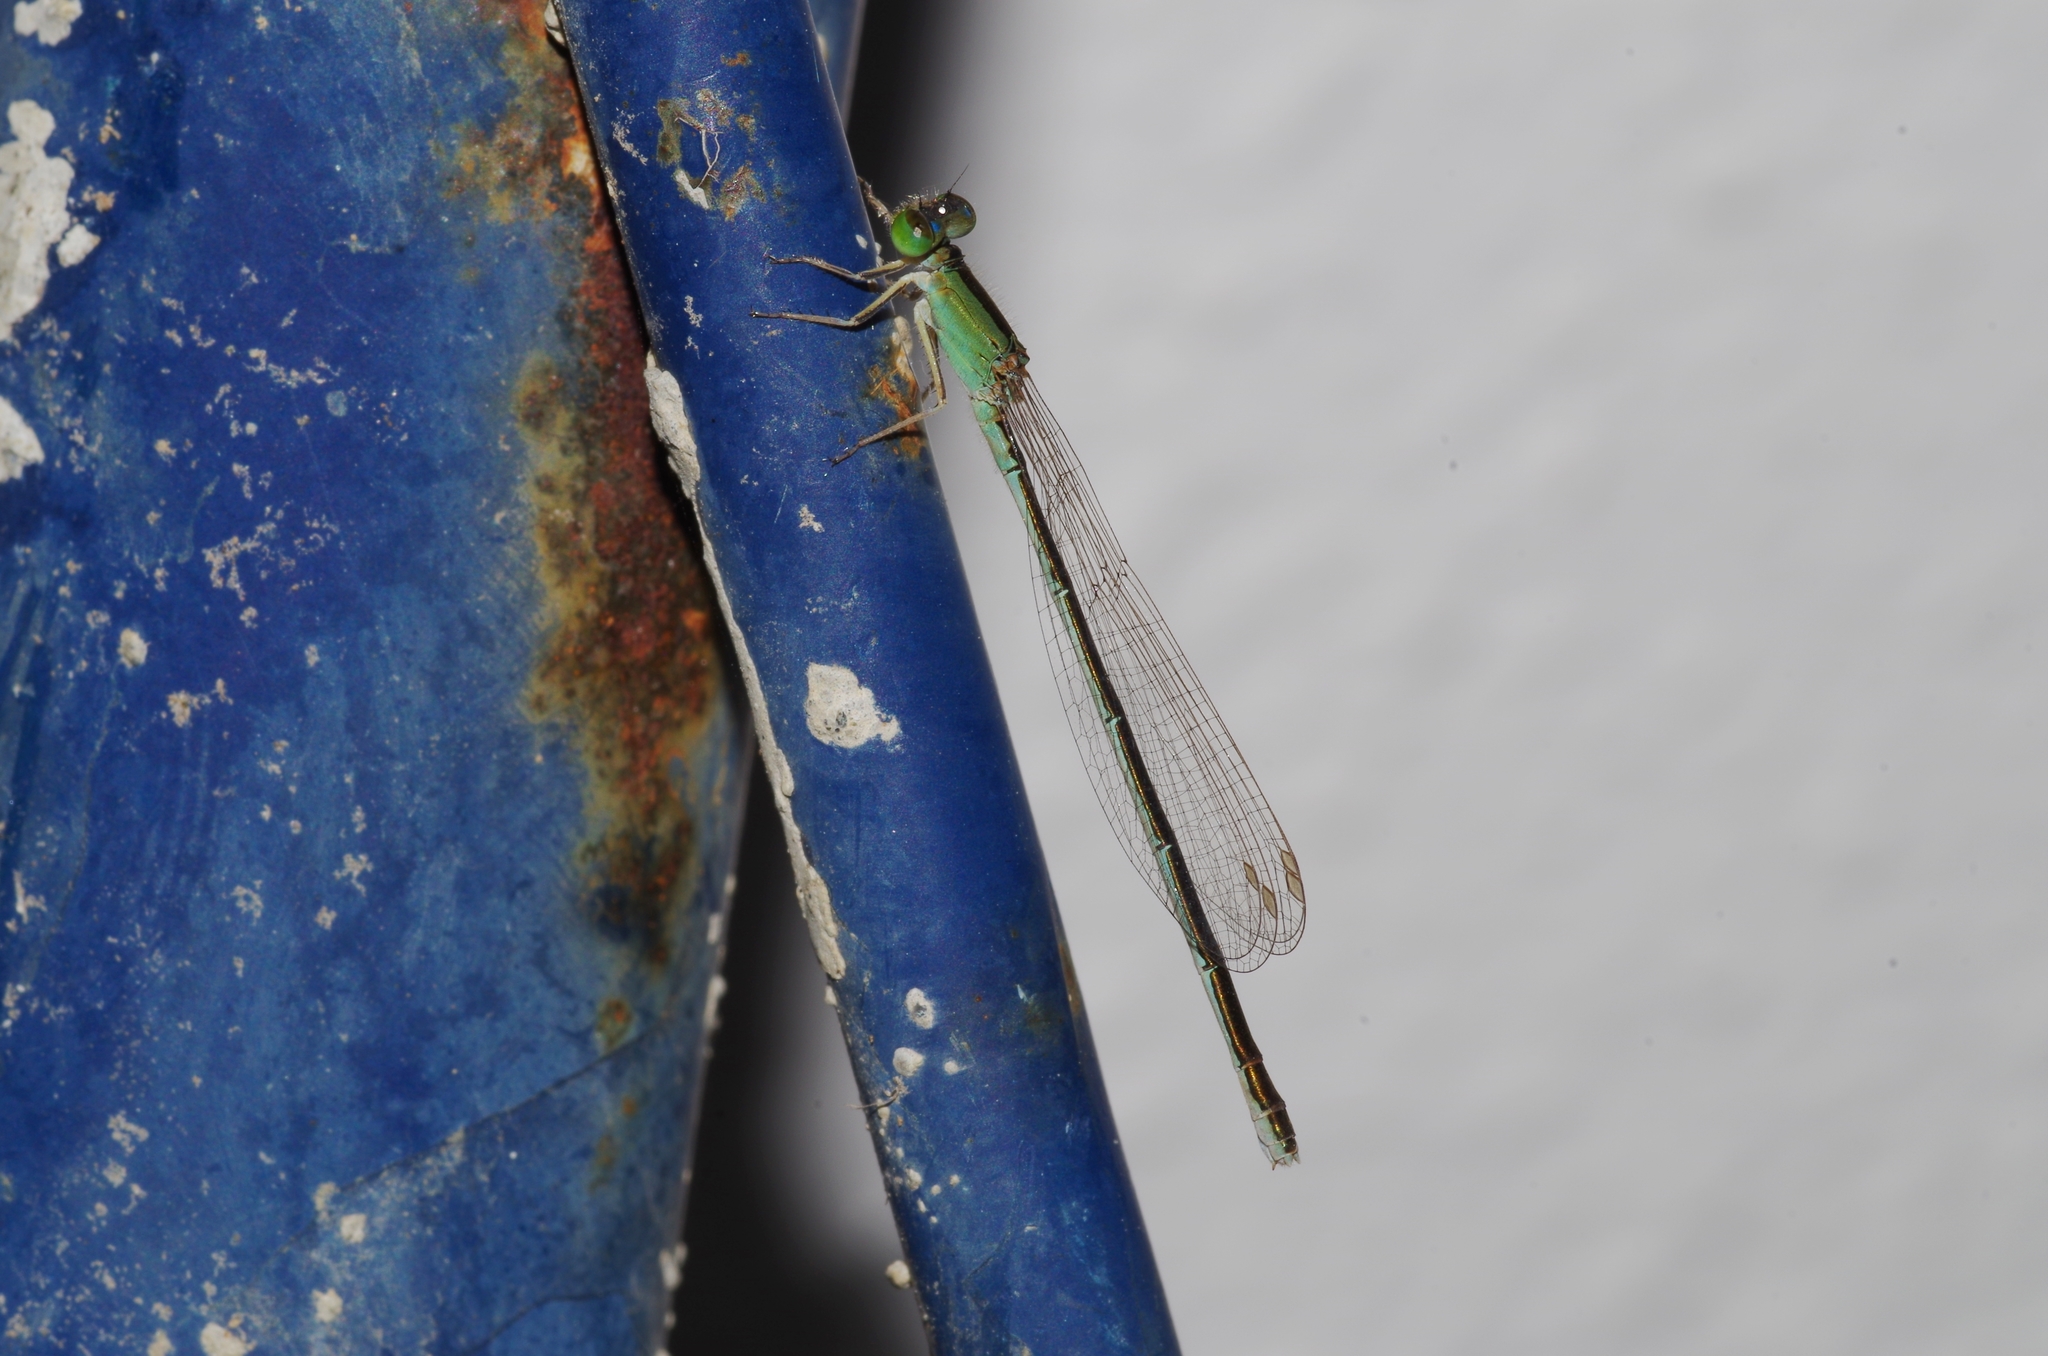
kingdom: Animalia
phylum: Arthropoda
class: Insecta
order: Odonata
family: Coenagrionidae
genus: Ischnura
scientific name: Ischnura asiatica
